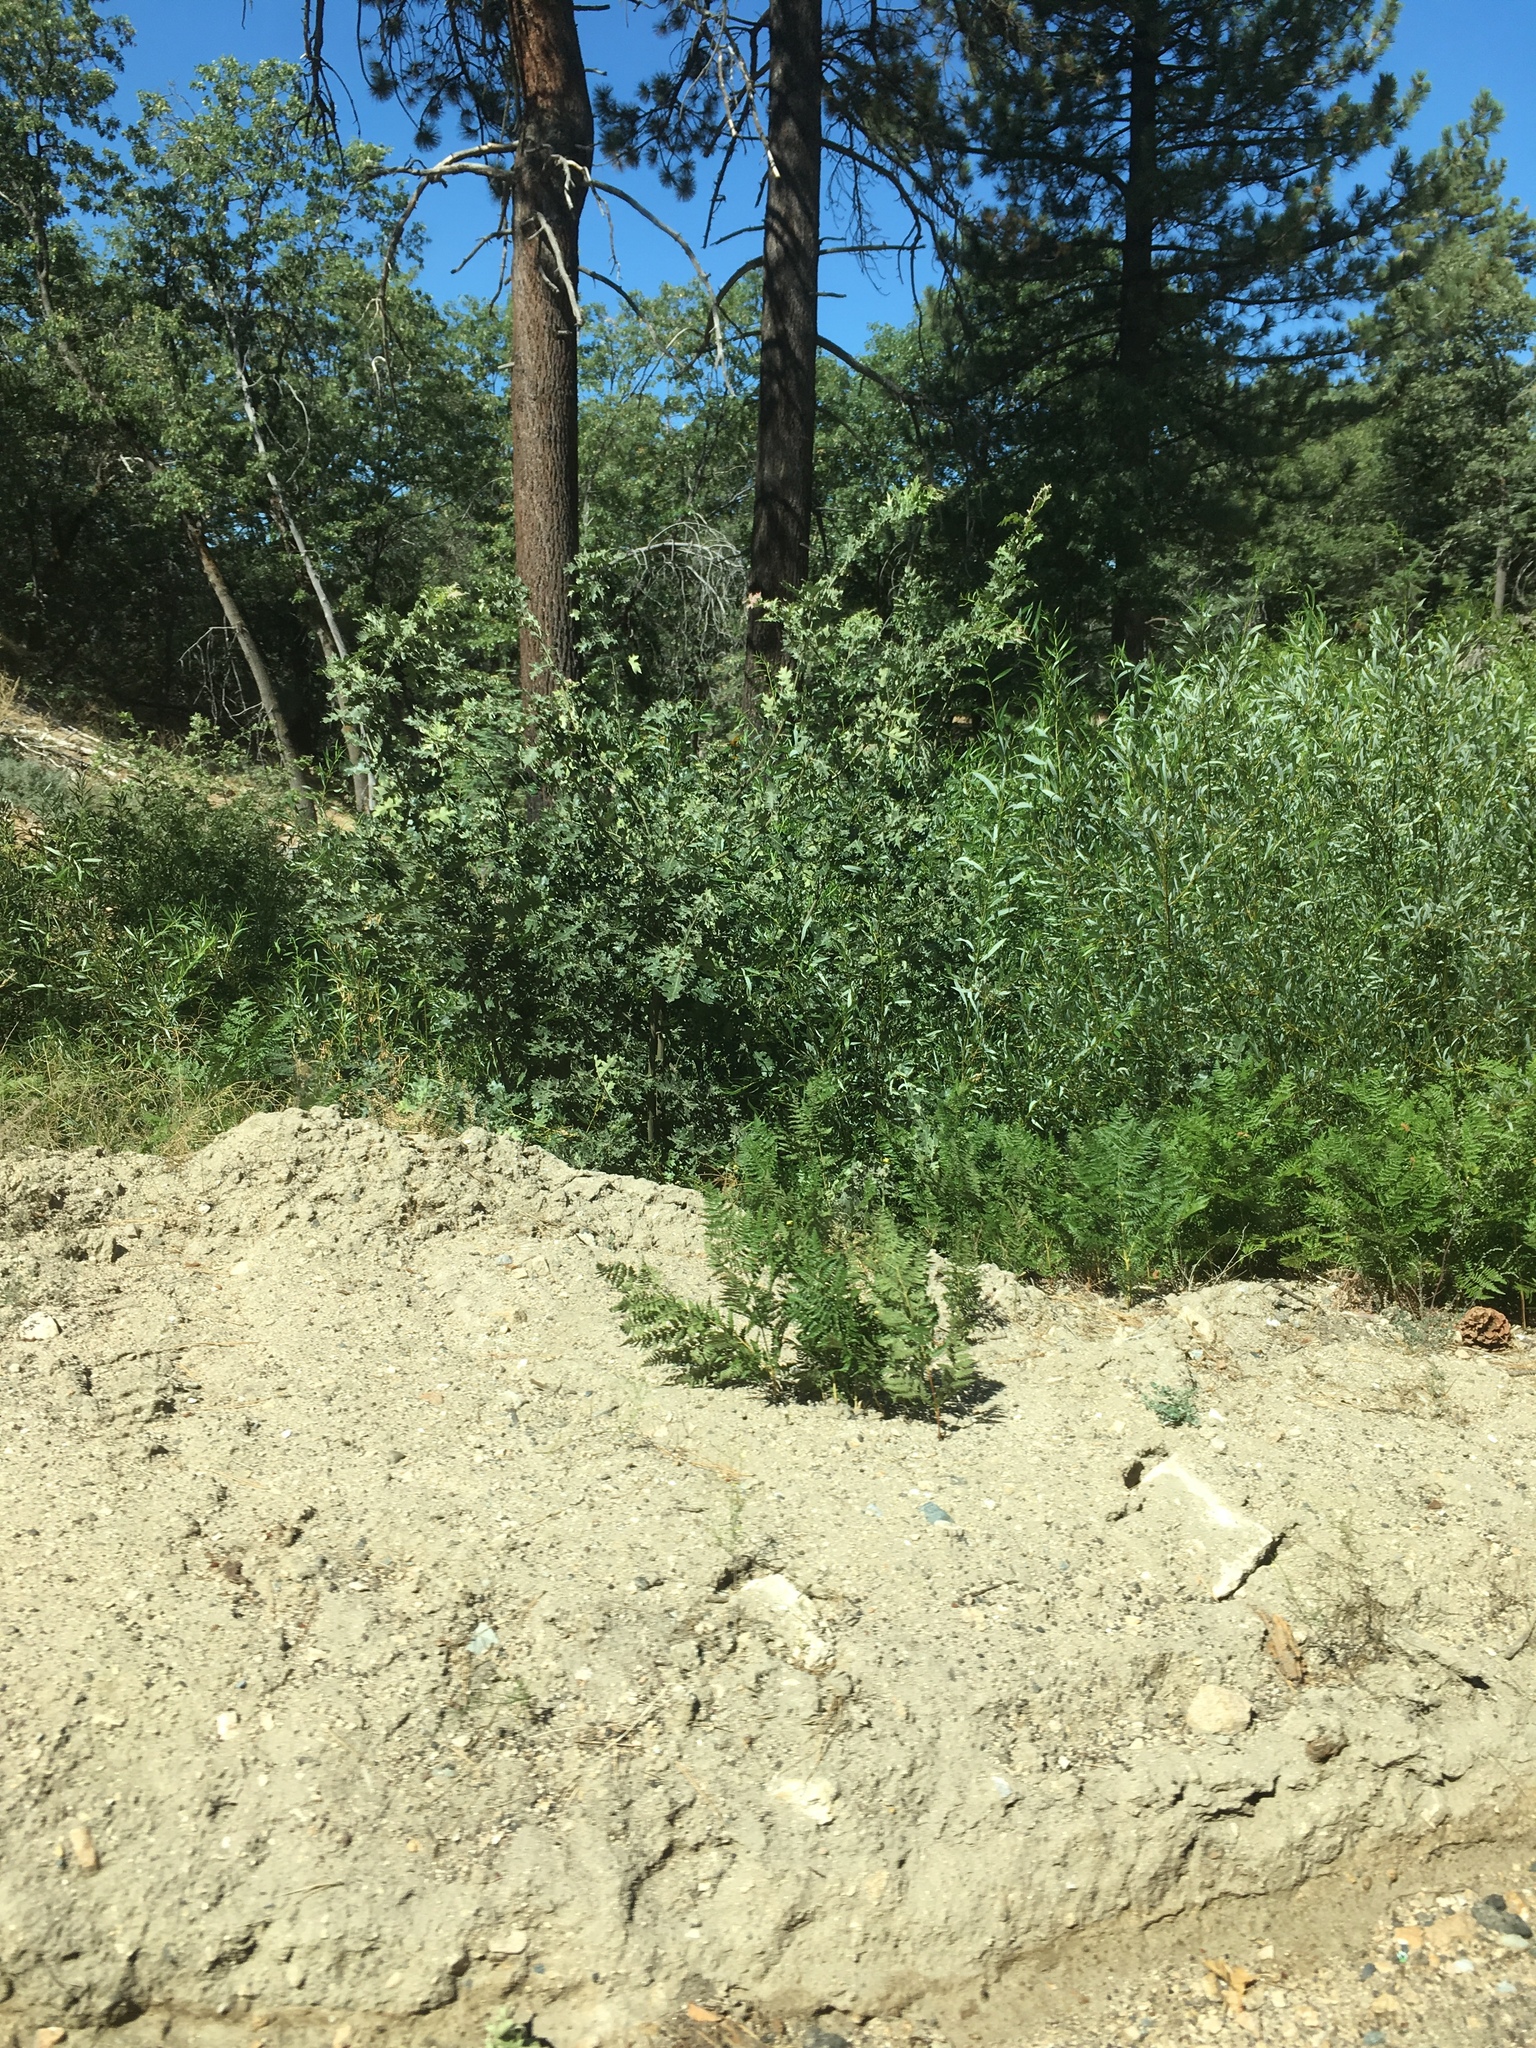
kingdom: Plantae
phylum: Tracheophyta
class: Magnoliopsida
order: Fagales
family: Fagaceae
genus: Quercus
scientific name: Quercus kelloggii
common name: California black oak
